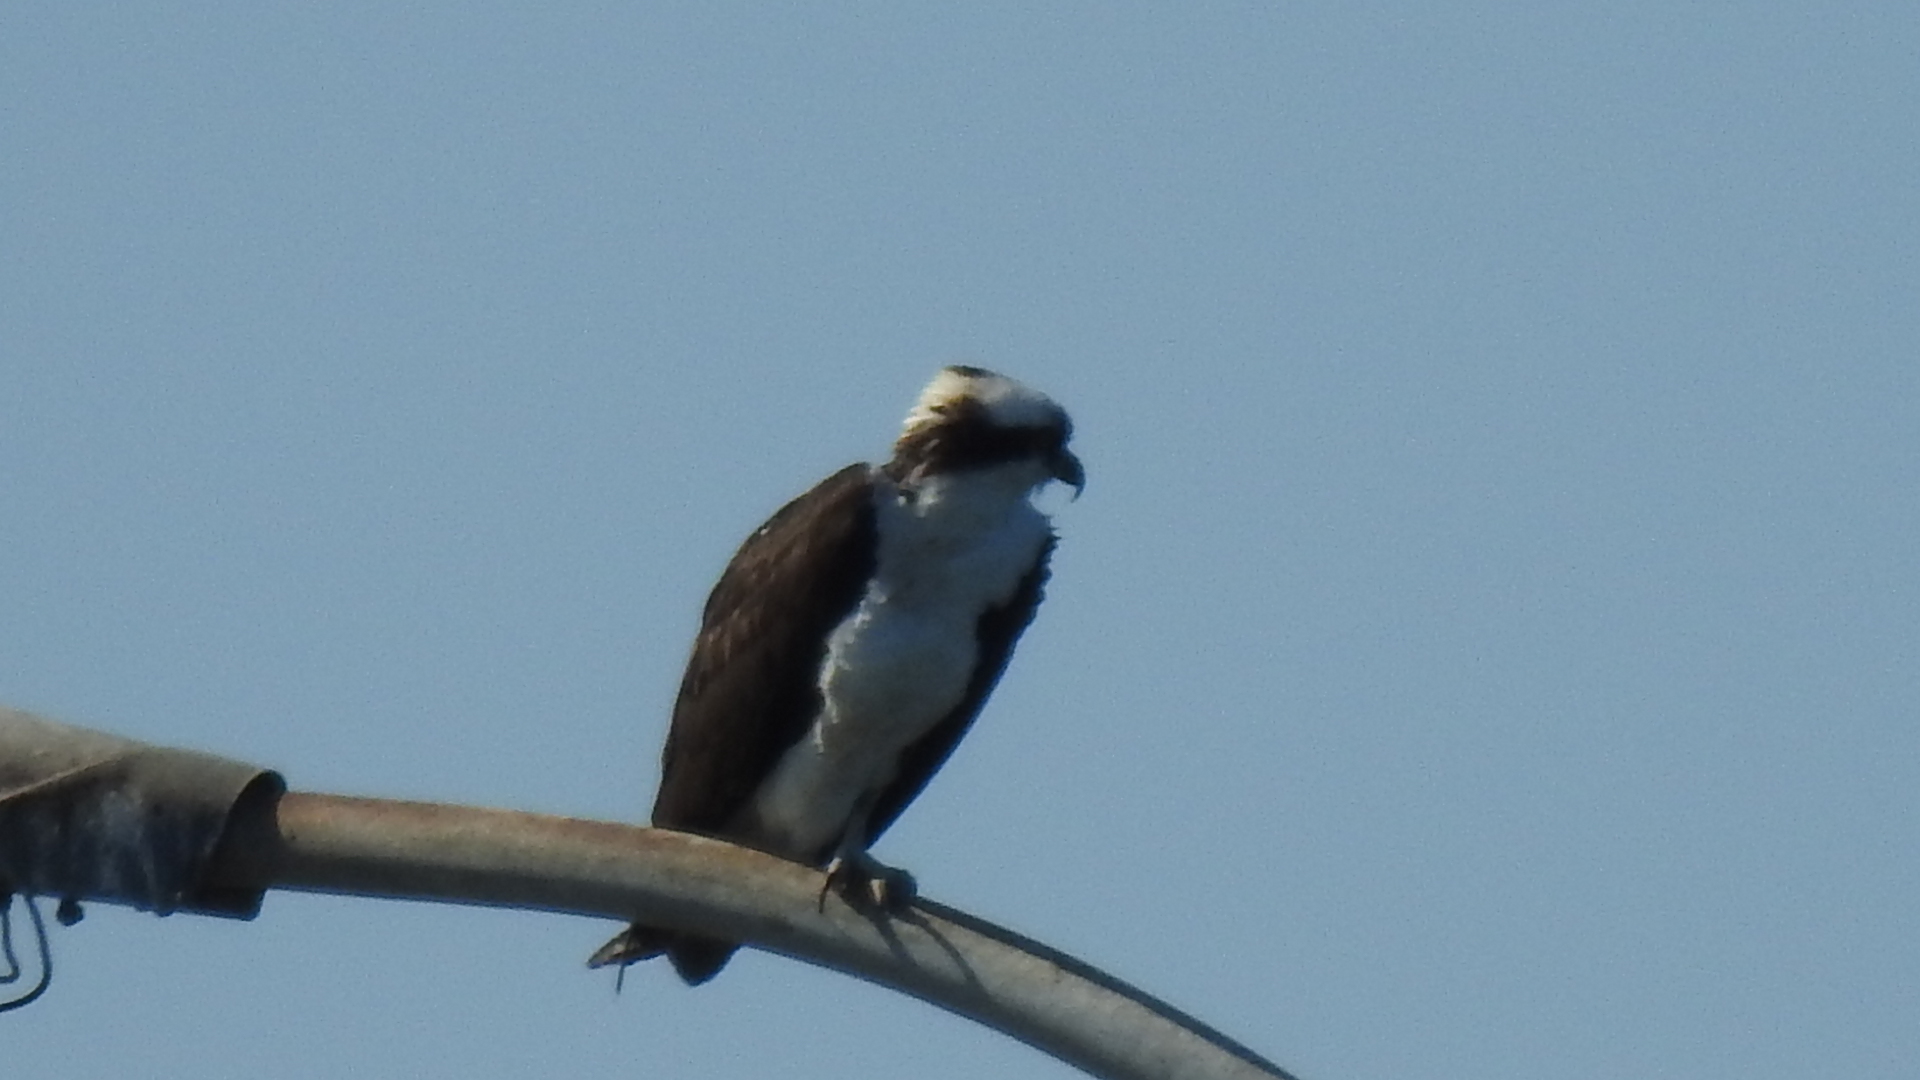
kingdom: Animalia
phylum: Chordata
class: Aves
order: Accipitriformes
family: Pandionidae
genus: Pandion
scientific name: Pandion haliaetus
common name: Osprey
